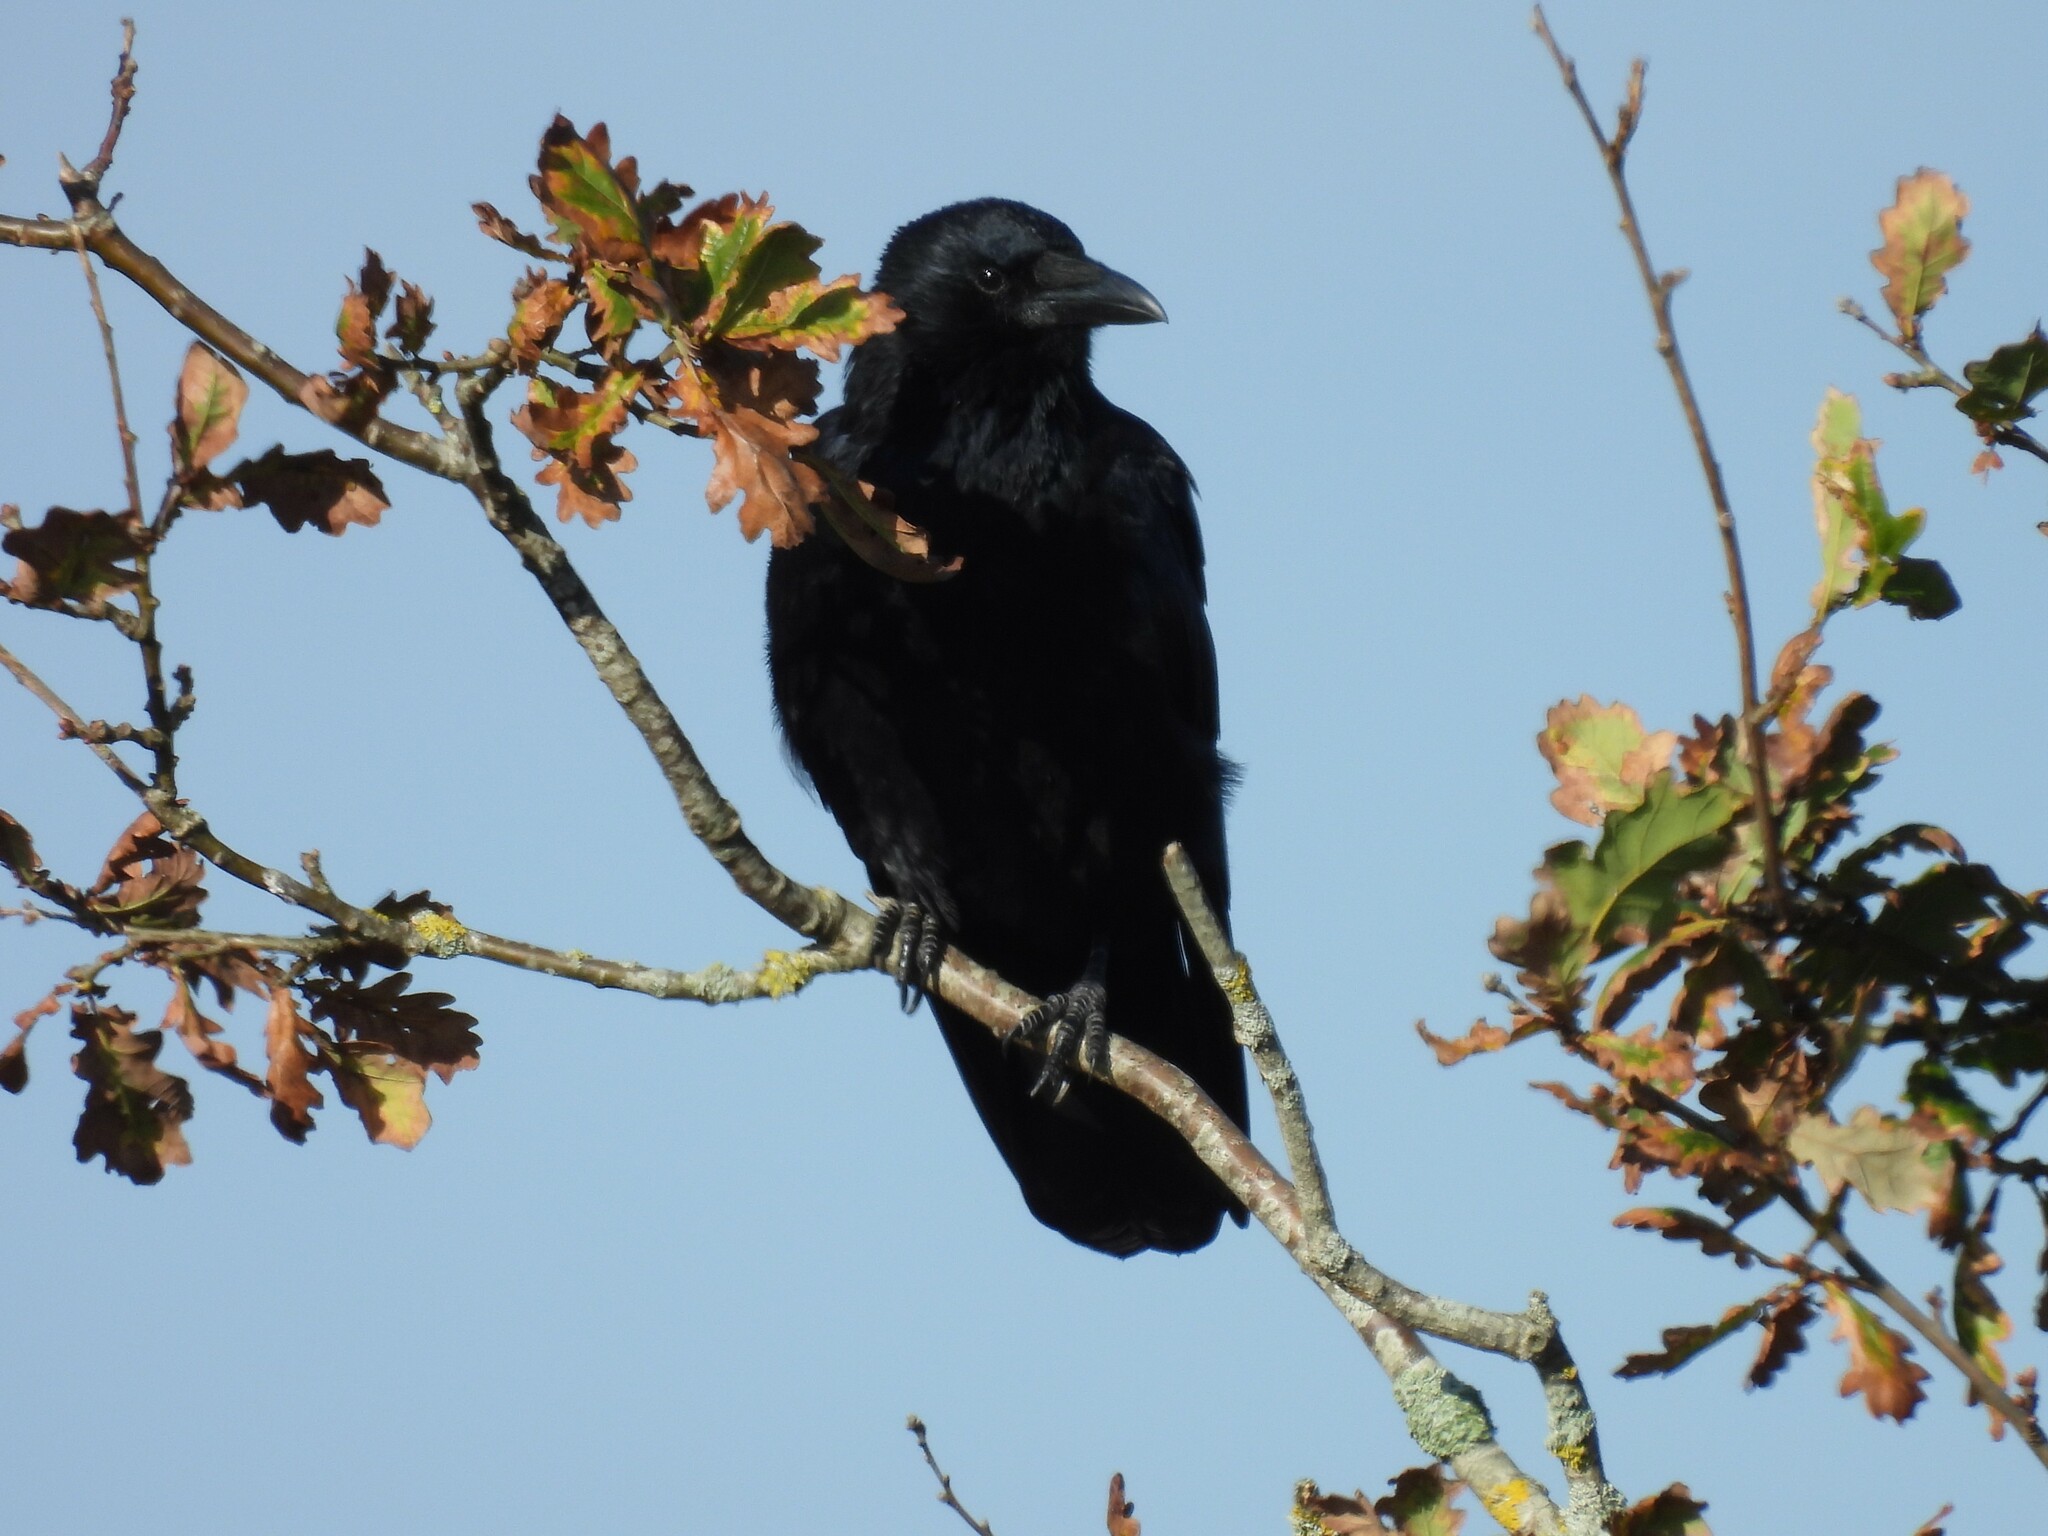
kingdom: Animalia
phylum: Chordata
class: Aves
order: Passeriformes
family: Corvidae
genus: Corvus
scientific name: Corvus corone
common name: Carrion crow
